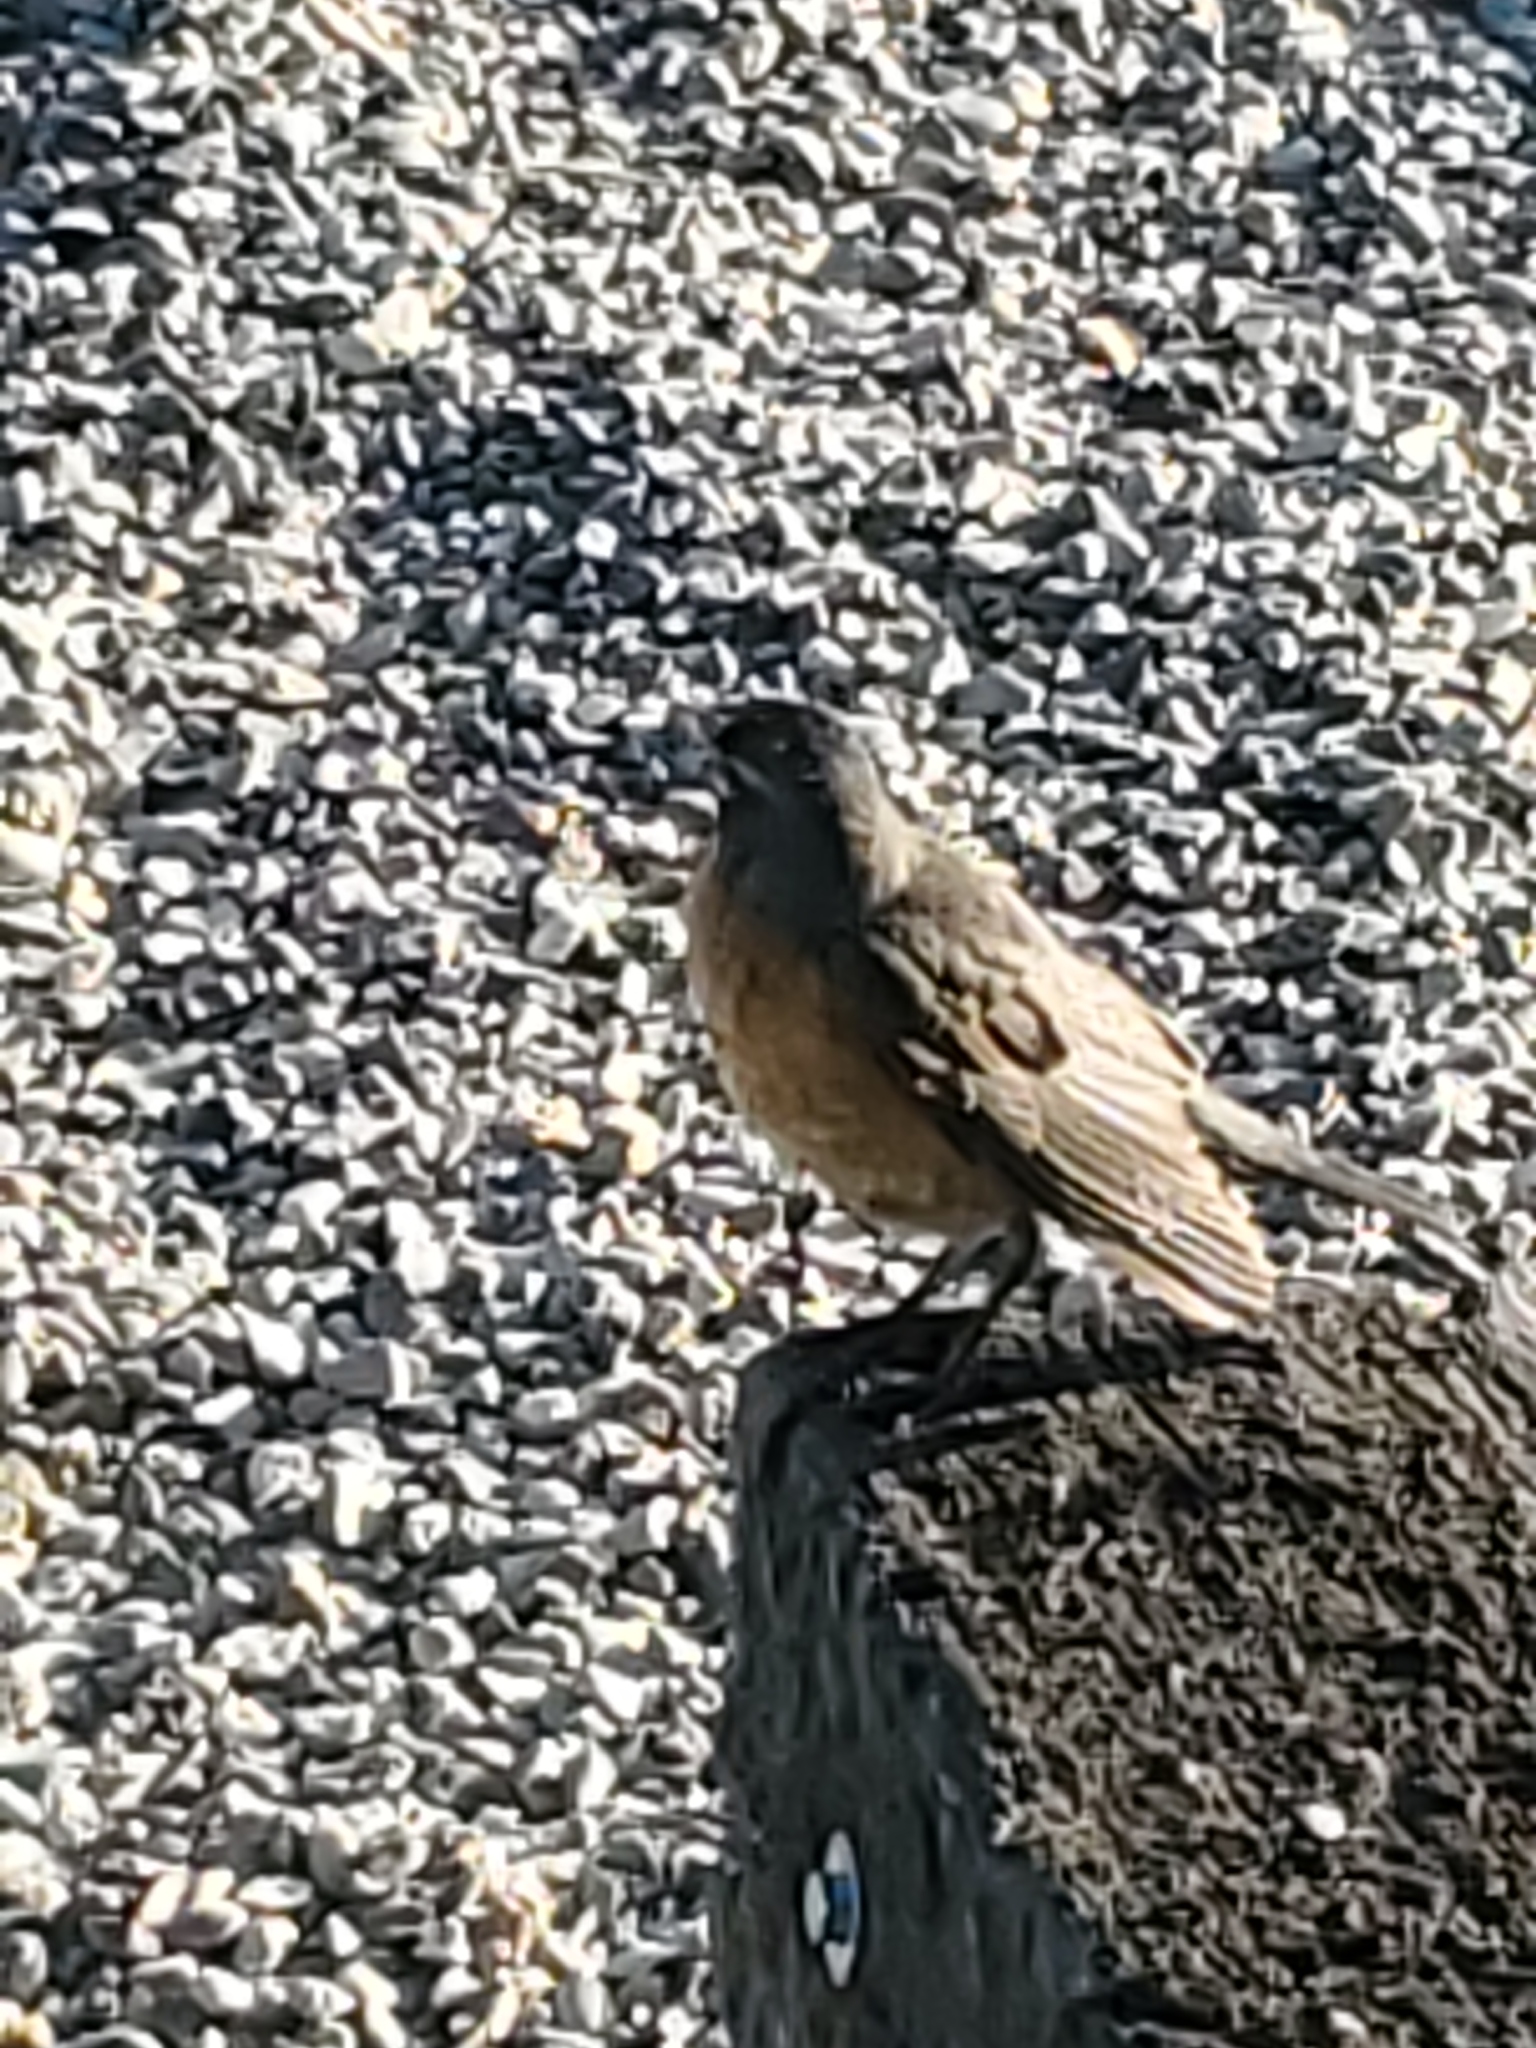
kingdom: Animalia
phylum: Chordata
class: Aves
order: Passeriformes
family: Turdidae
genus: Turdus
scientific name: Turdus migratorius
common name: American robin
